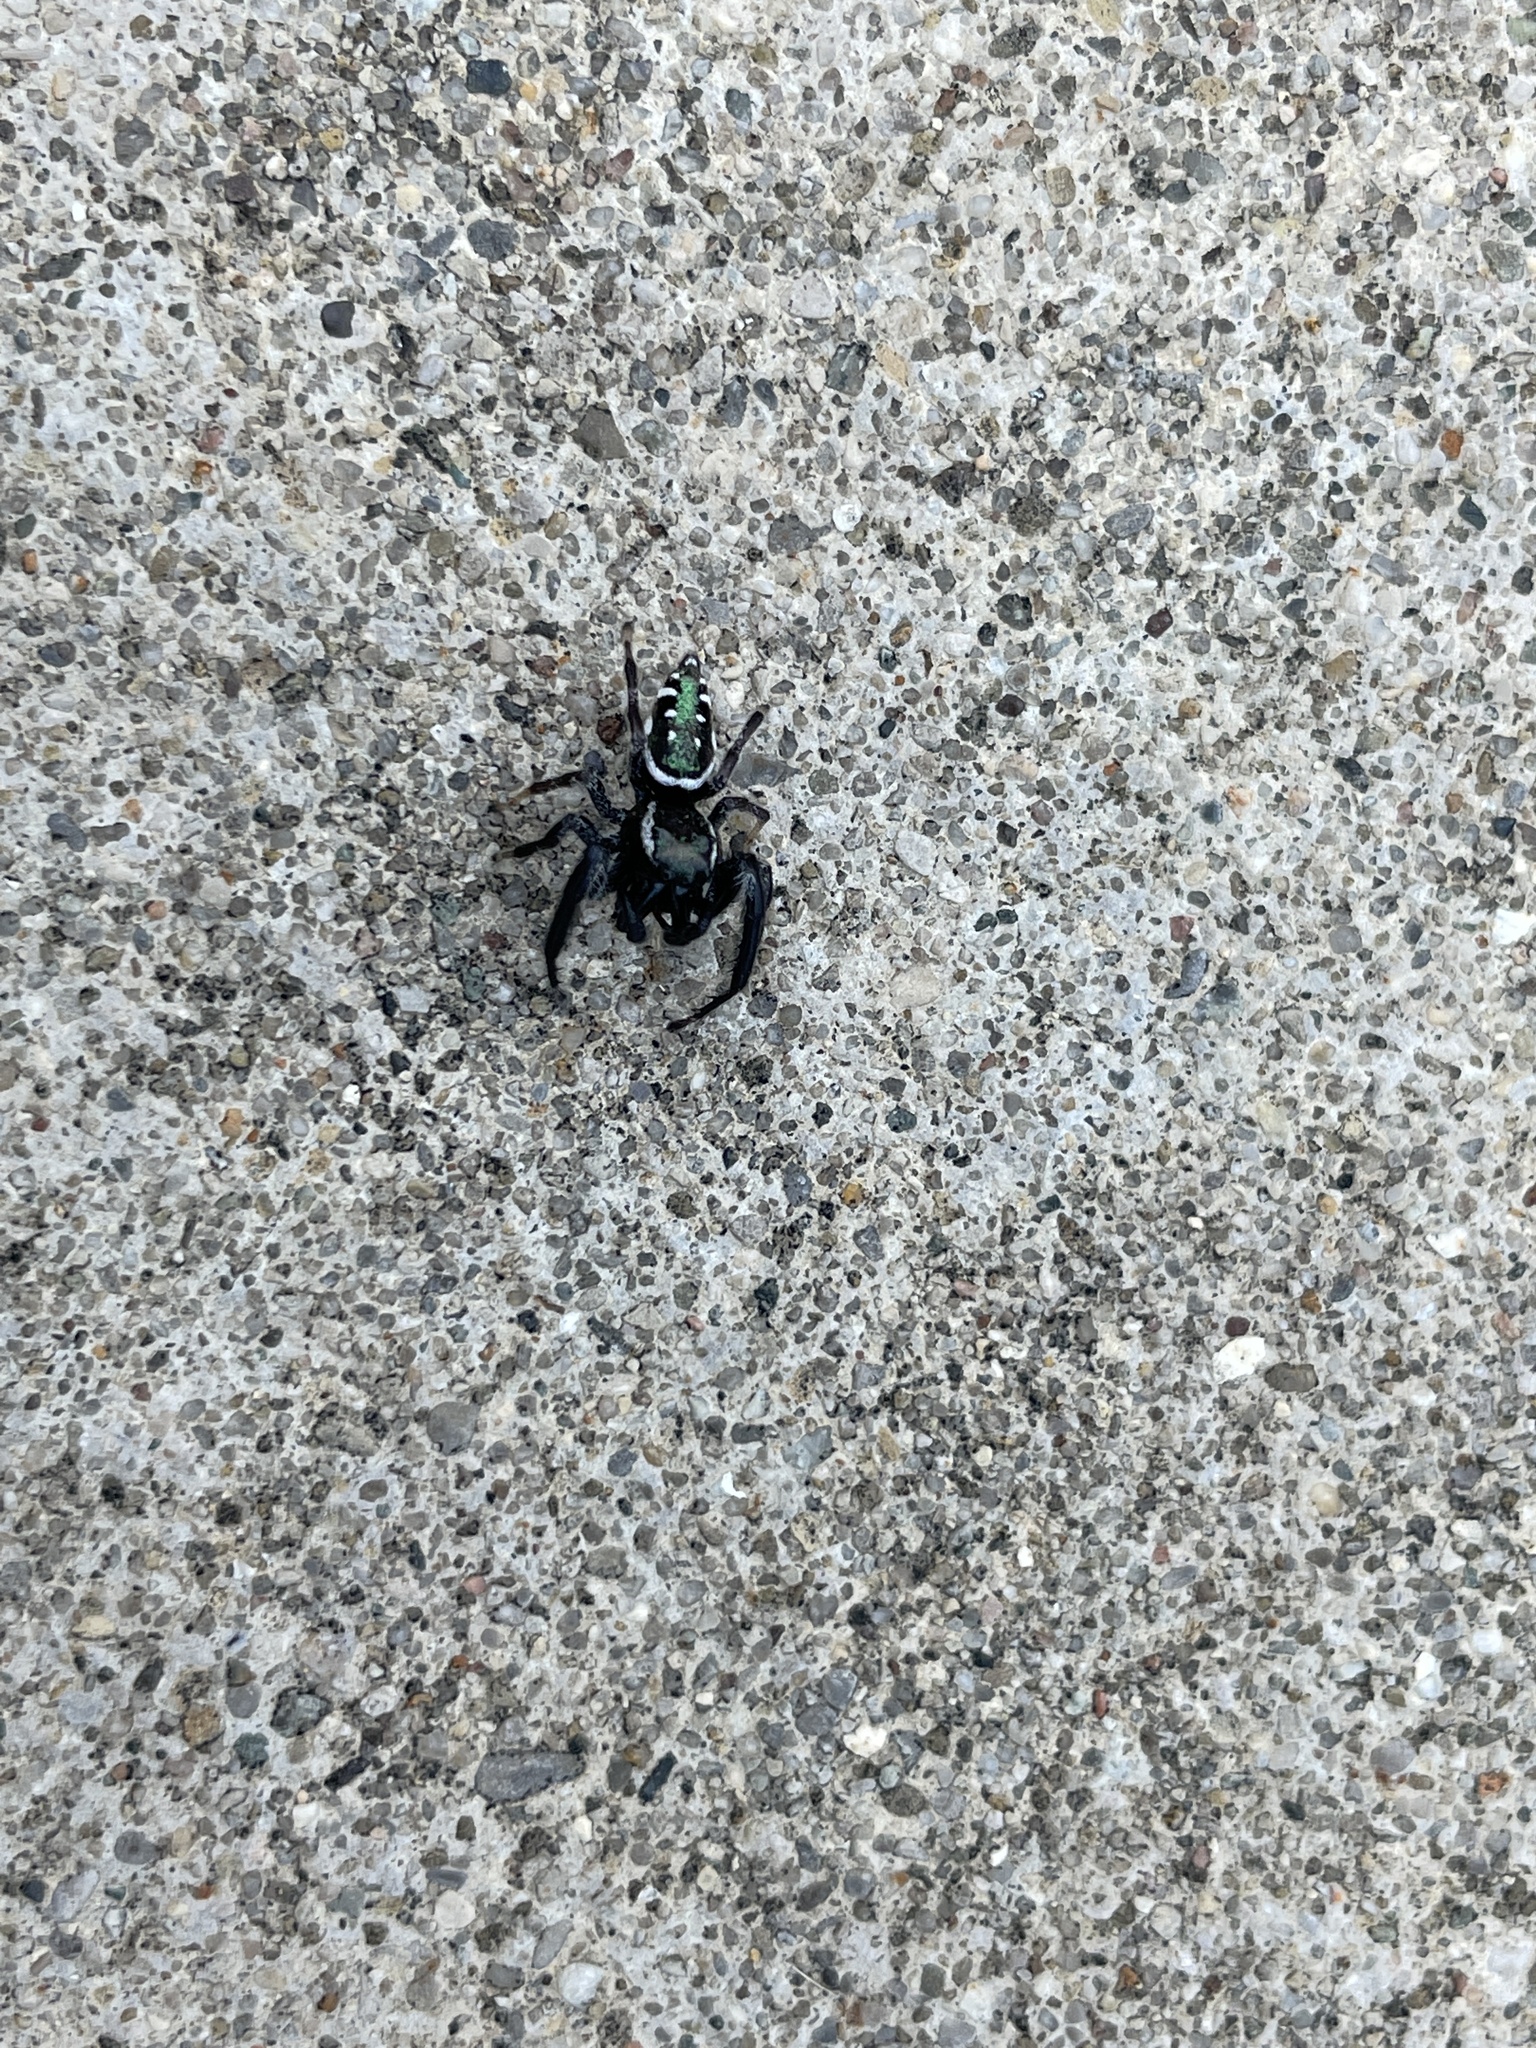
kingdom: Animalia
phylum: Arthropoda
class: Arachnida
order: Araneae
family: Salticidae
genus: Paraphidippus
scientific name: Paraphidippus aurantius
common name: Jumping spiders
